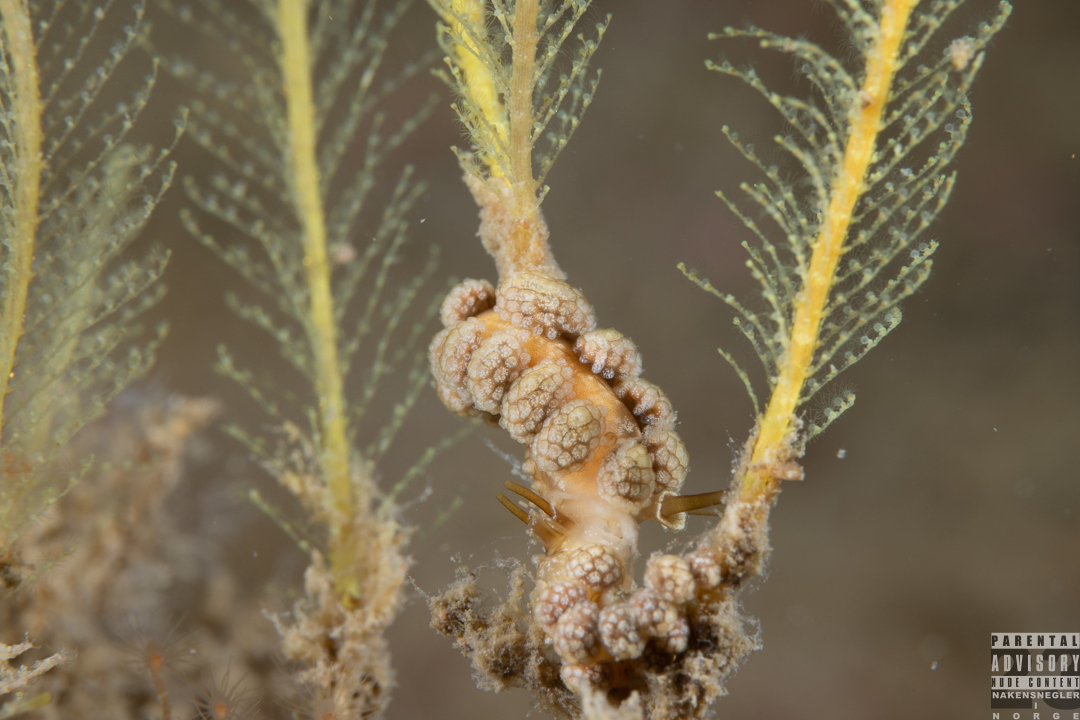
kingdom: Animalia
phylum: Mollusca
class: Gastropoda
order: Nudibranchia
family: Dotidae
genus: Doto
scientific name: Doto fragilis
